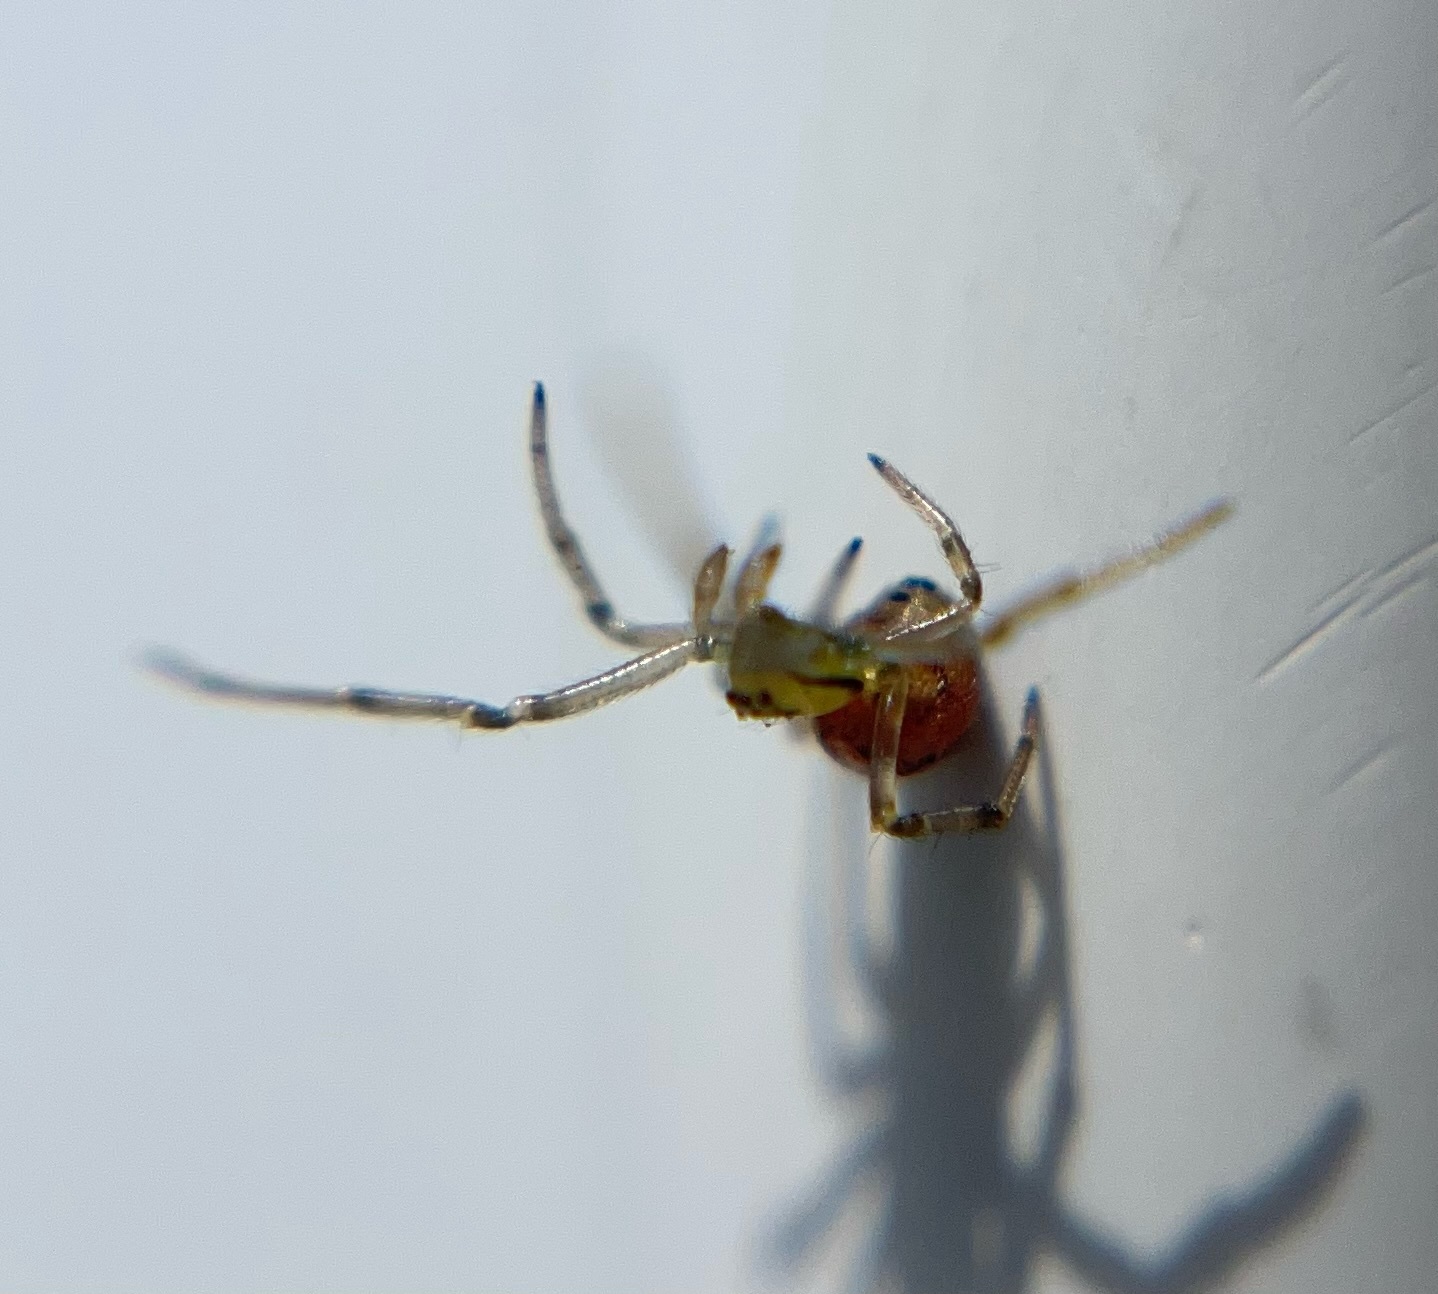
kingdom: Animalia
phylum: Arthropoda
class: Arachnida
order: Araneae
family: Theridiidae
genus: Phylloneta
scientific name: Phylloneta impressa
